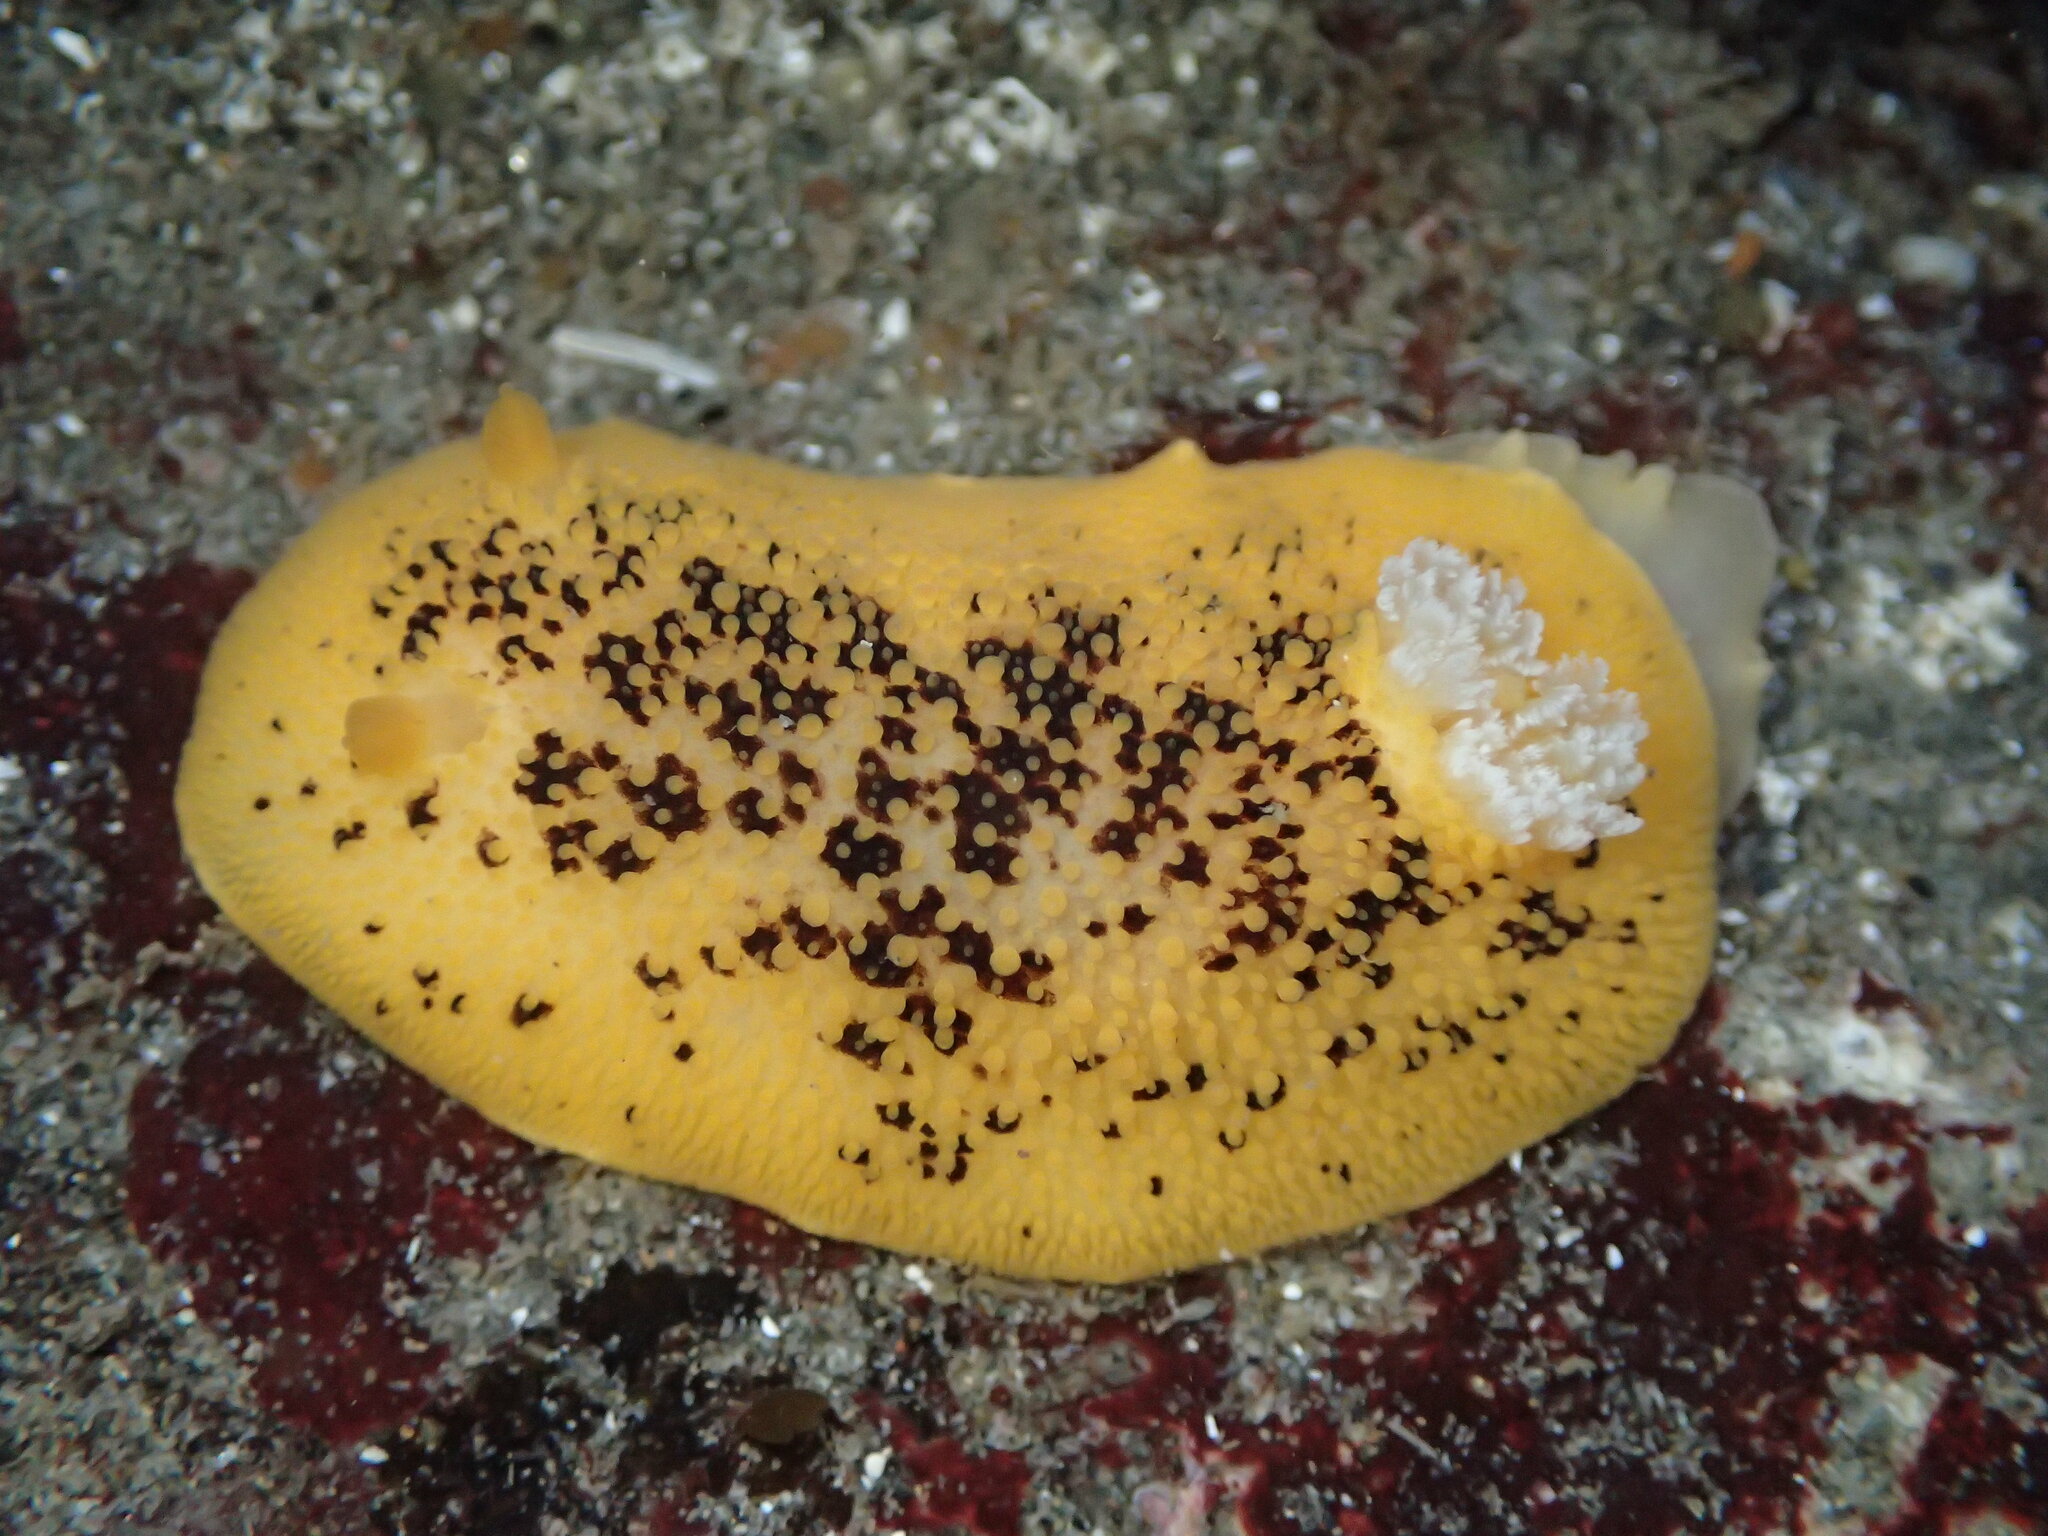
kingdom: Animalia
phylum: Mollusca
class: Gastropoda
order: Nudibranchia
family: Discodorididae
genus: Peltodoris
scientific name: Peltodoris nobilis
